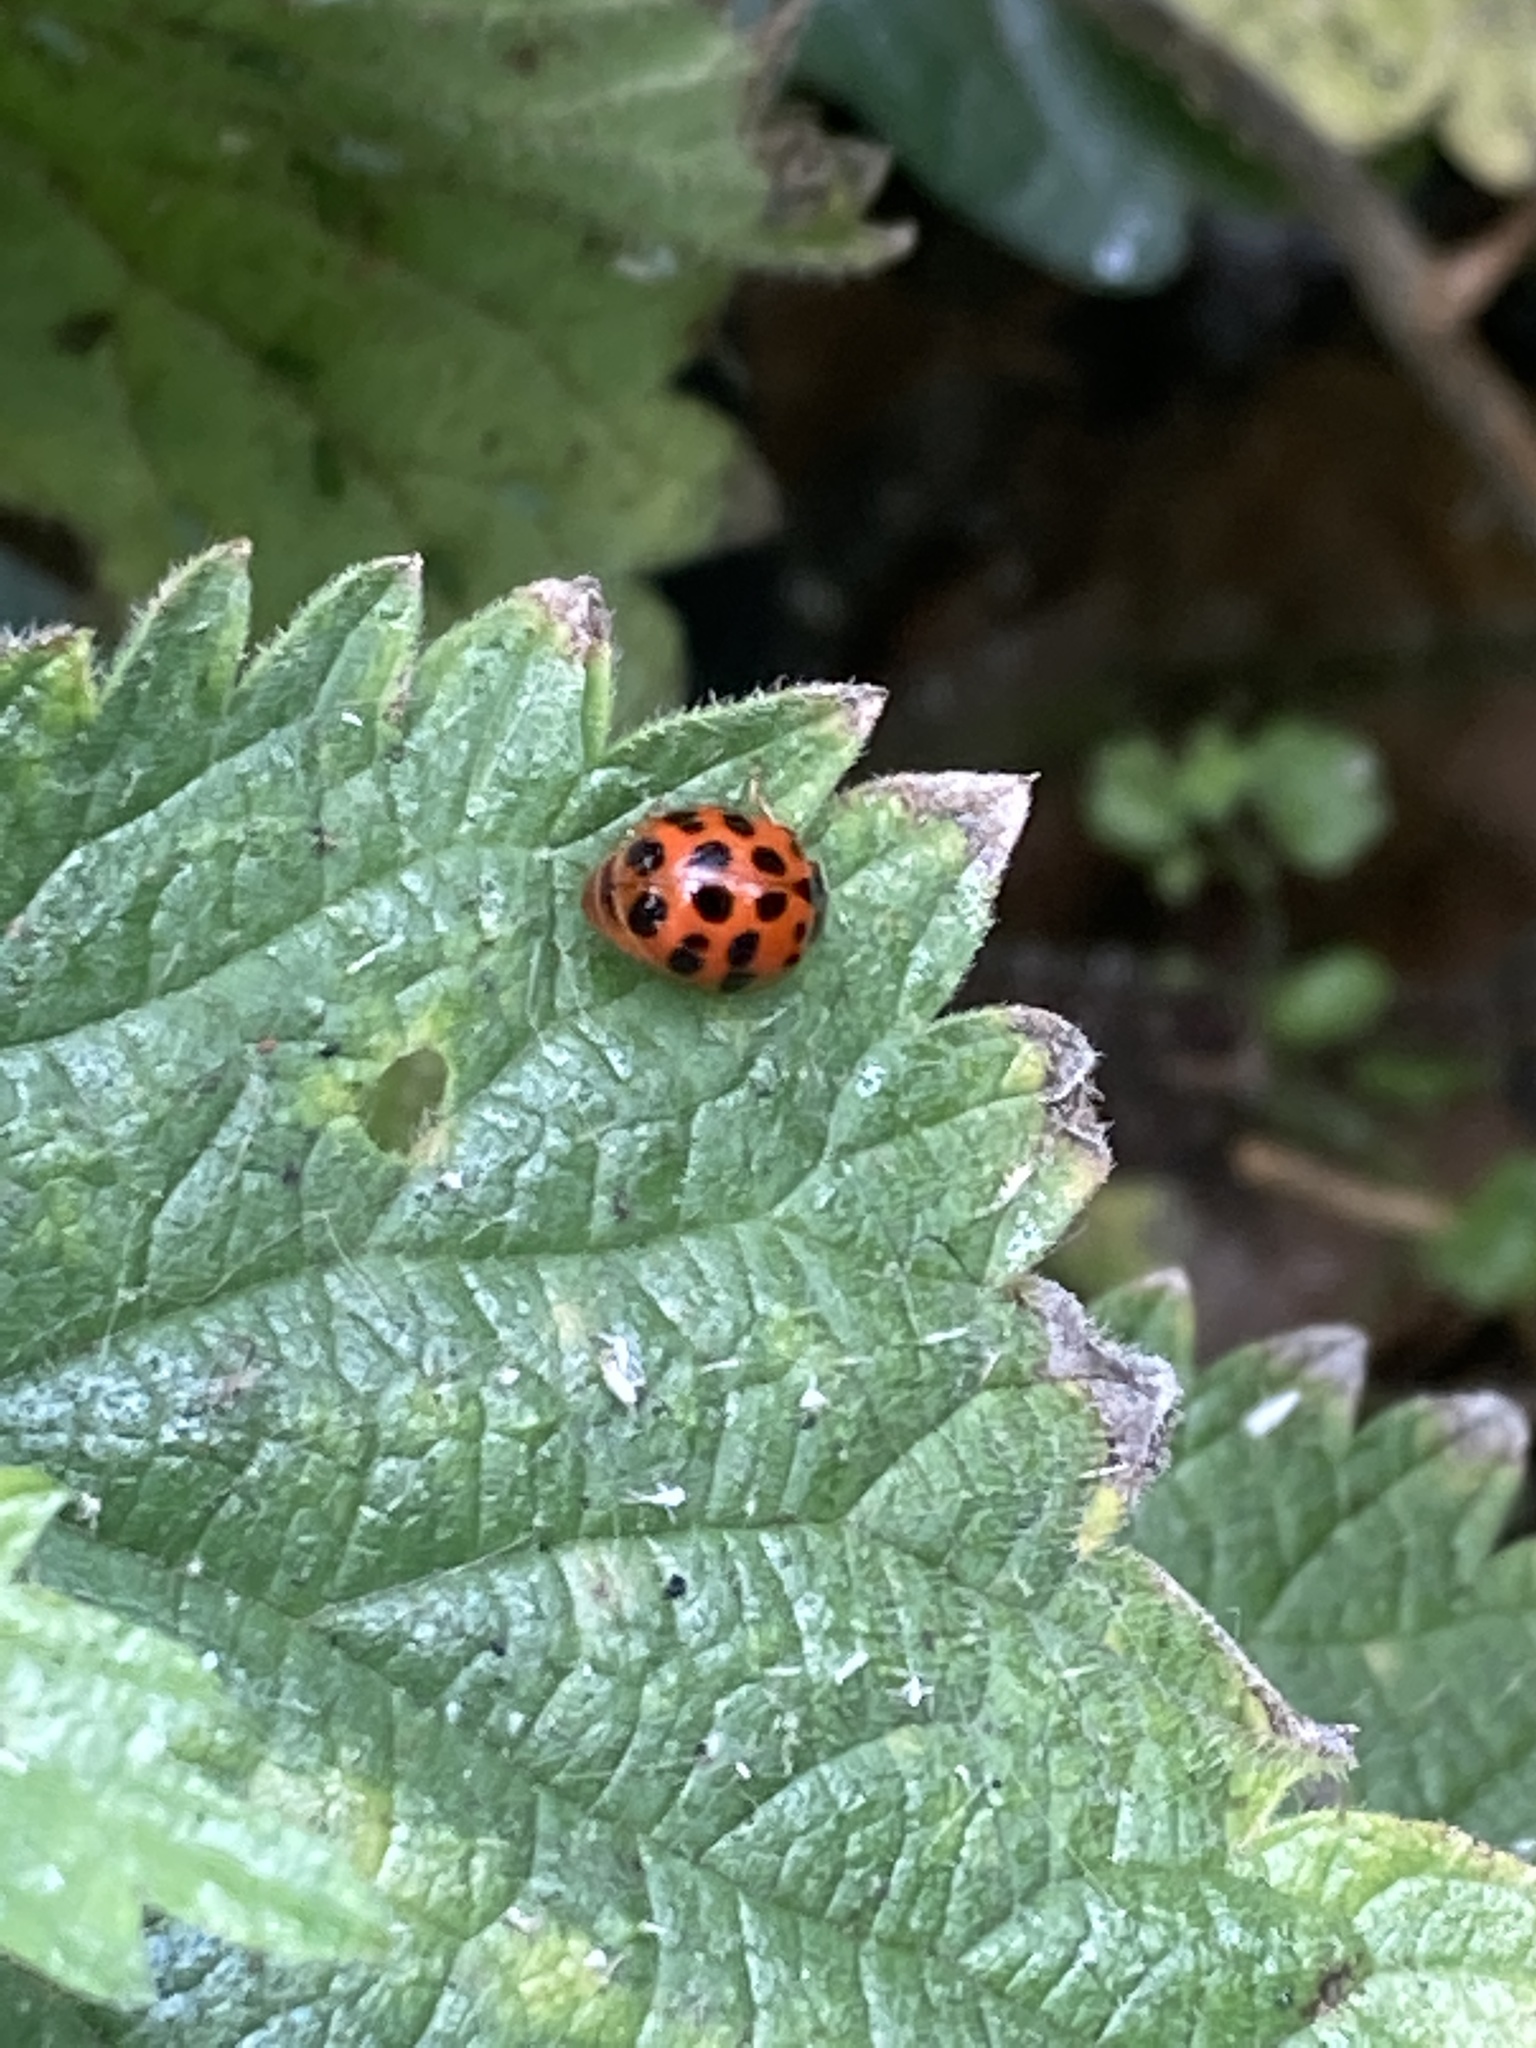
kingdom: Animalia
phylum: Arthropoda
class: Insecta
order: Coleoptera
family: Coccinellidae
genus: Harmonia
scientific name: Harmonia axyridis
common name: Harlequin ladybird
